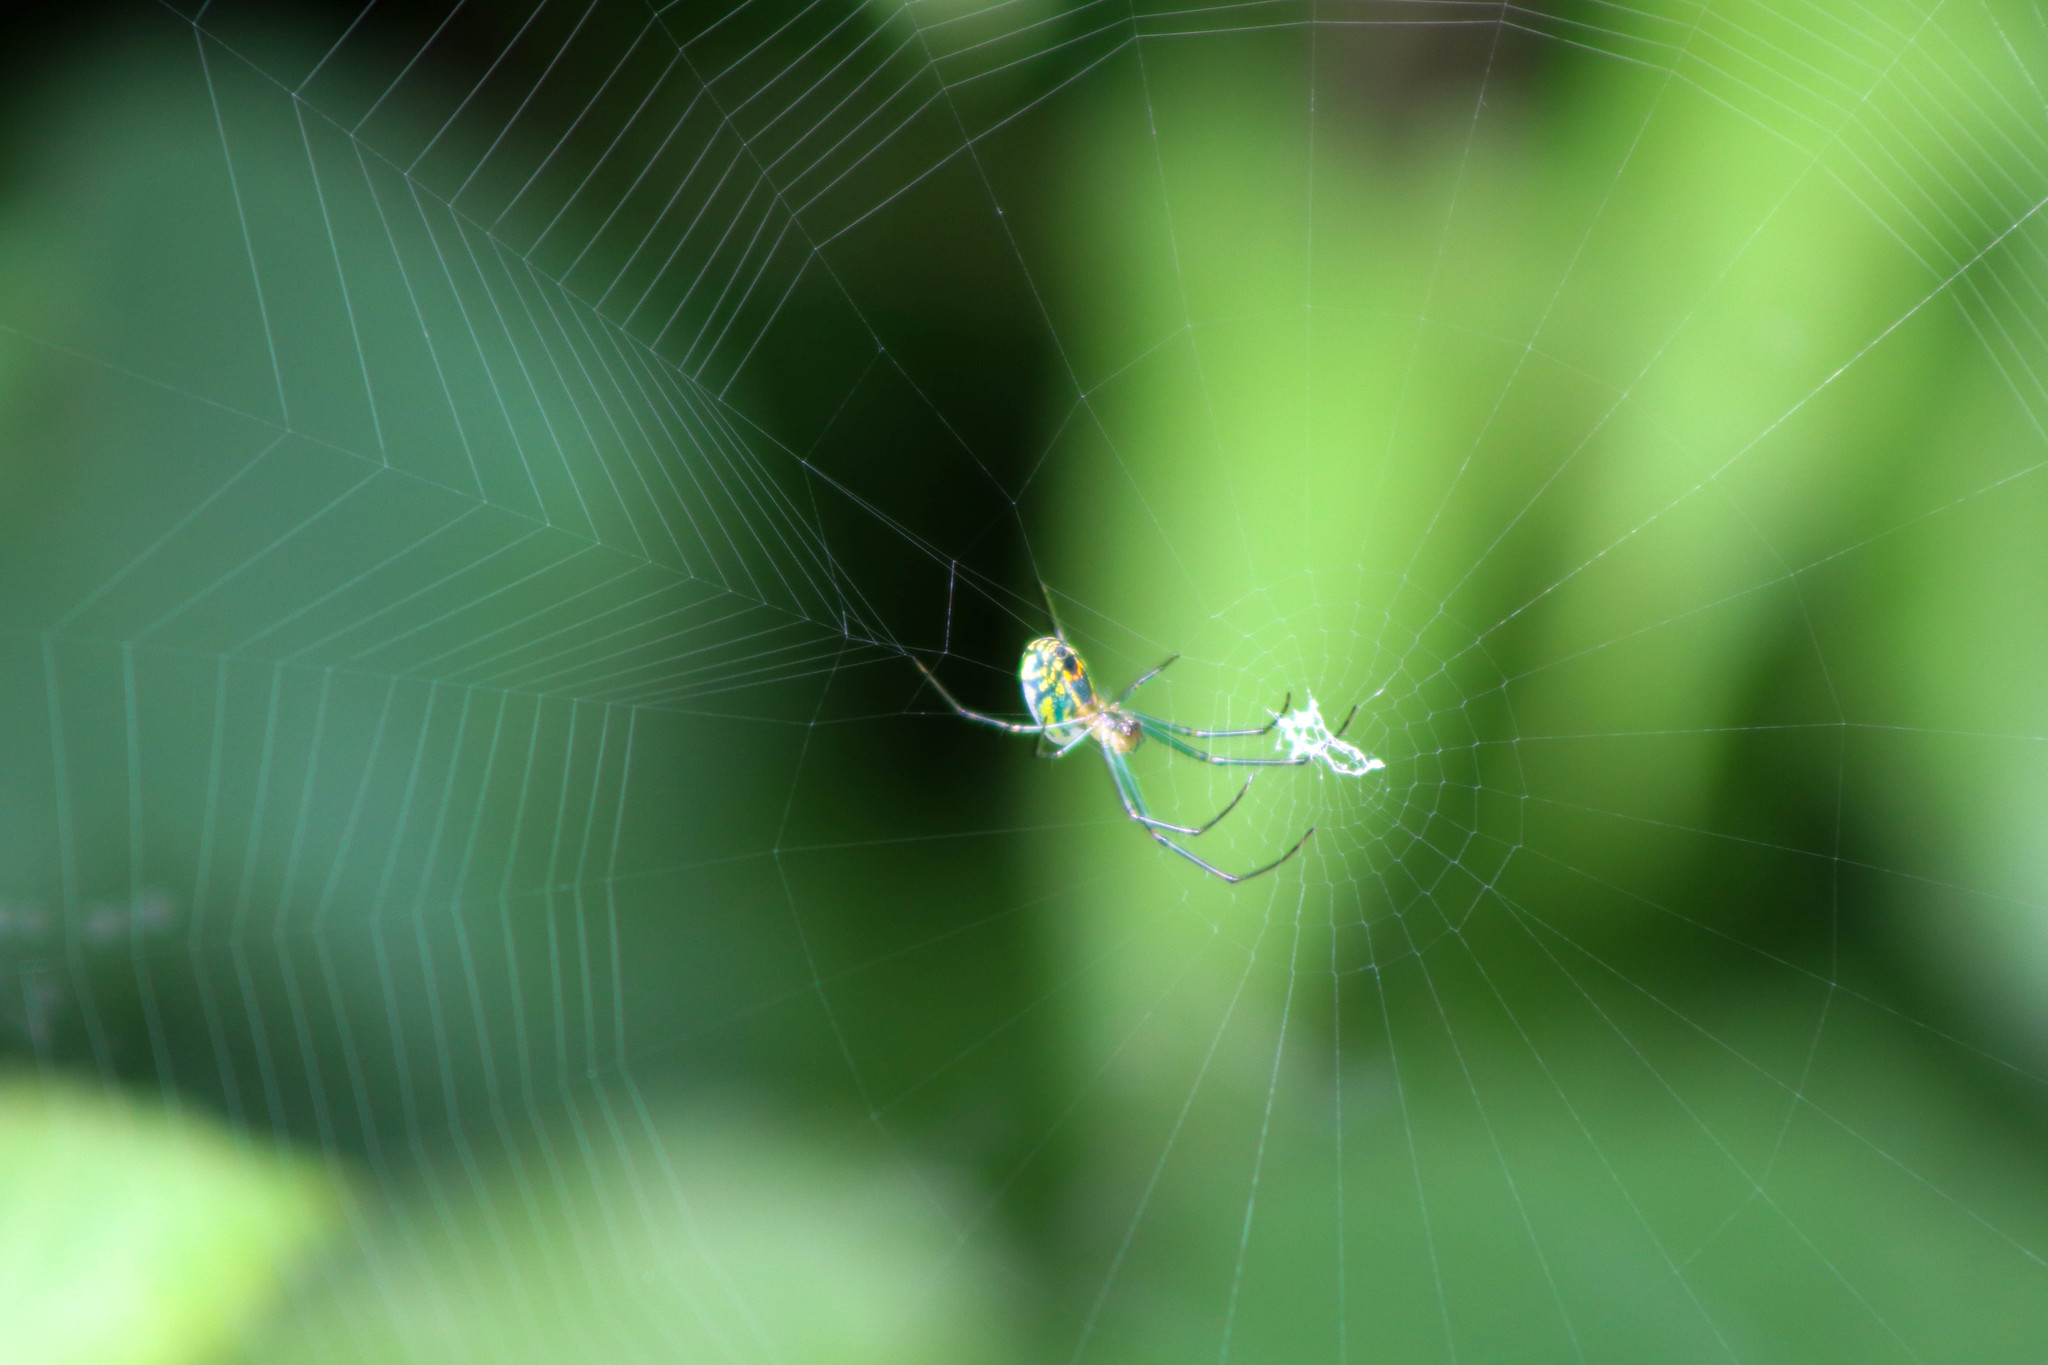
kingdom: Animalia
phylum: Arthropoda
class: Arachnida
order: Araneae
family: Tetragnathidae
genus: Leucauge
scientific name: Leucauge venusta
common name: Longjawed orb weavers
